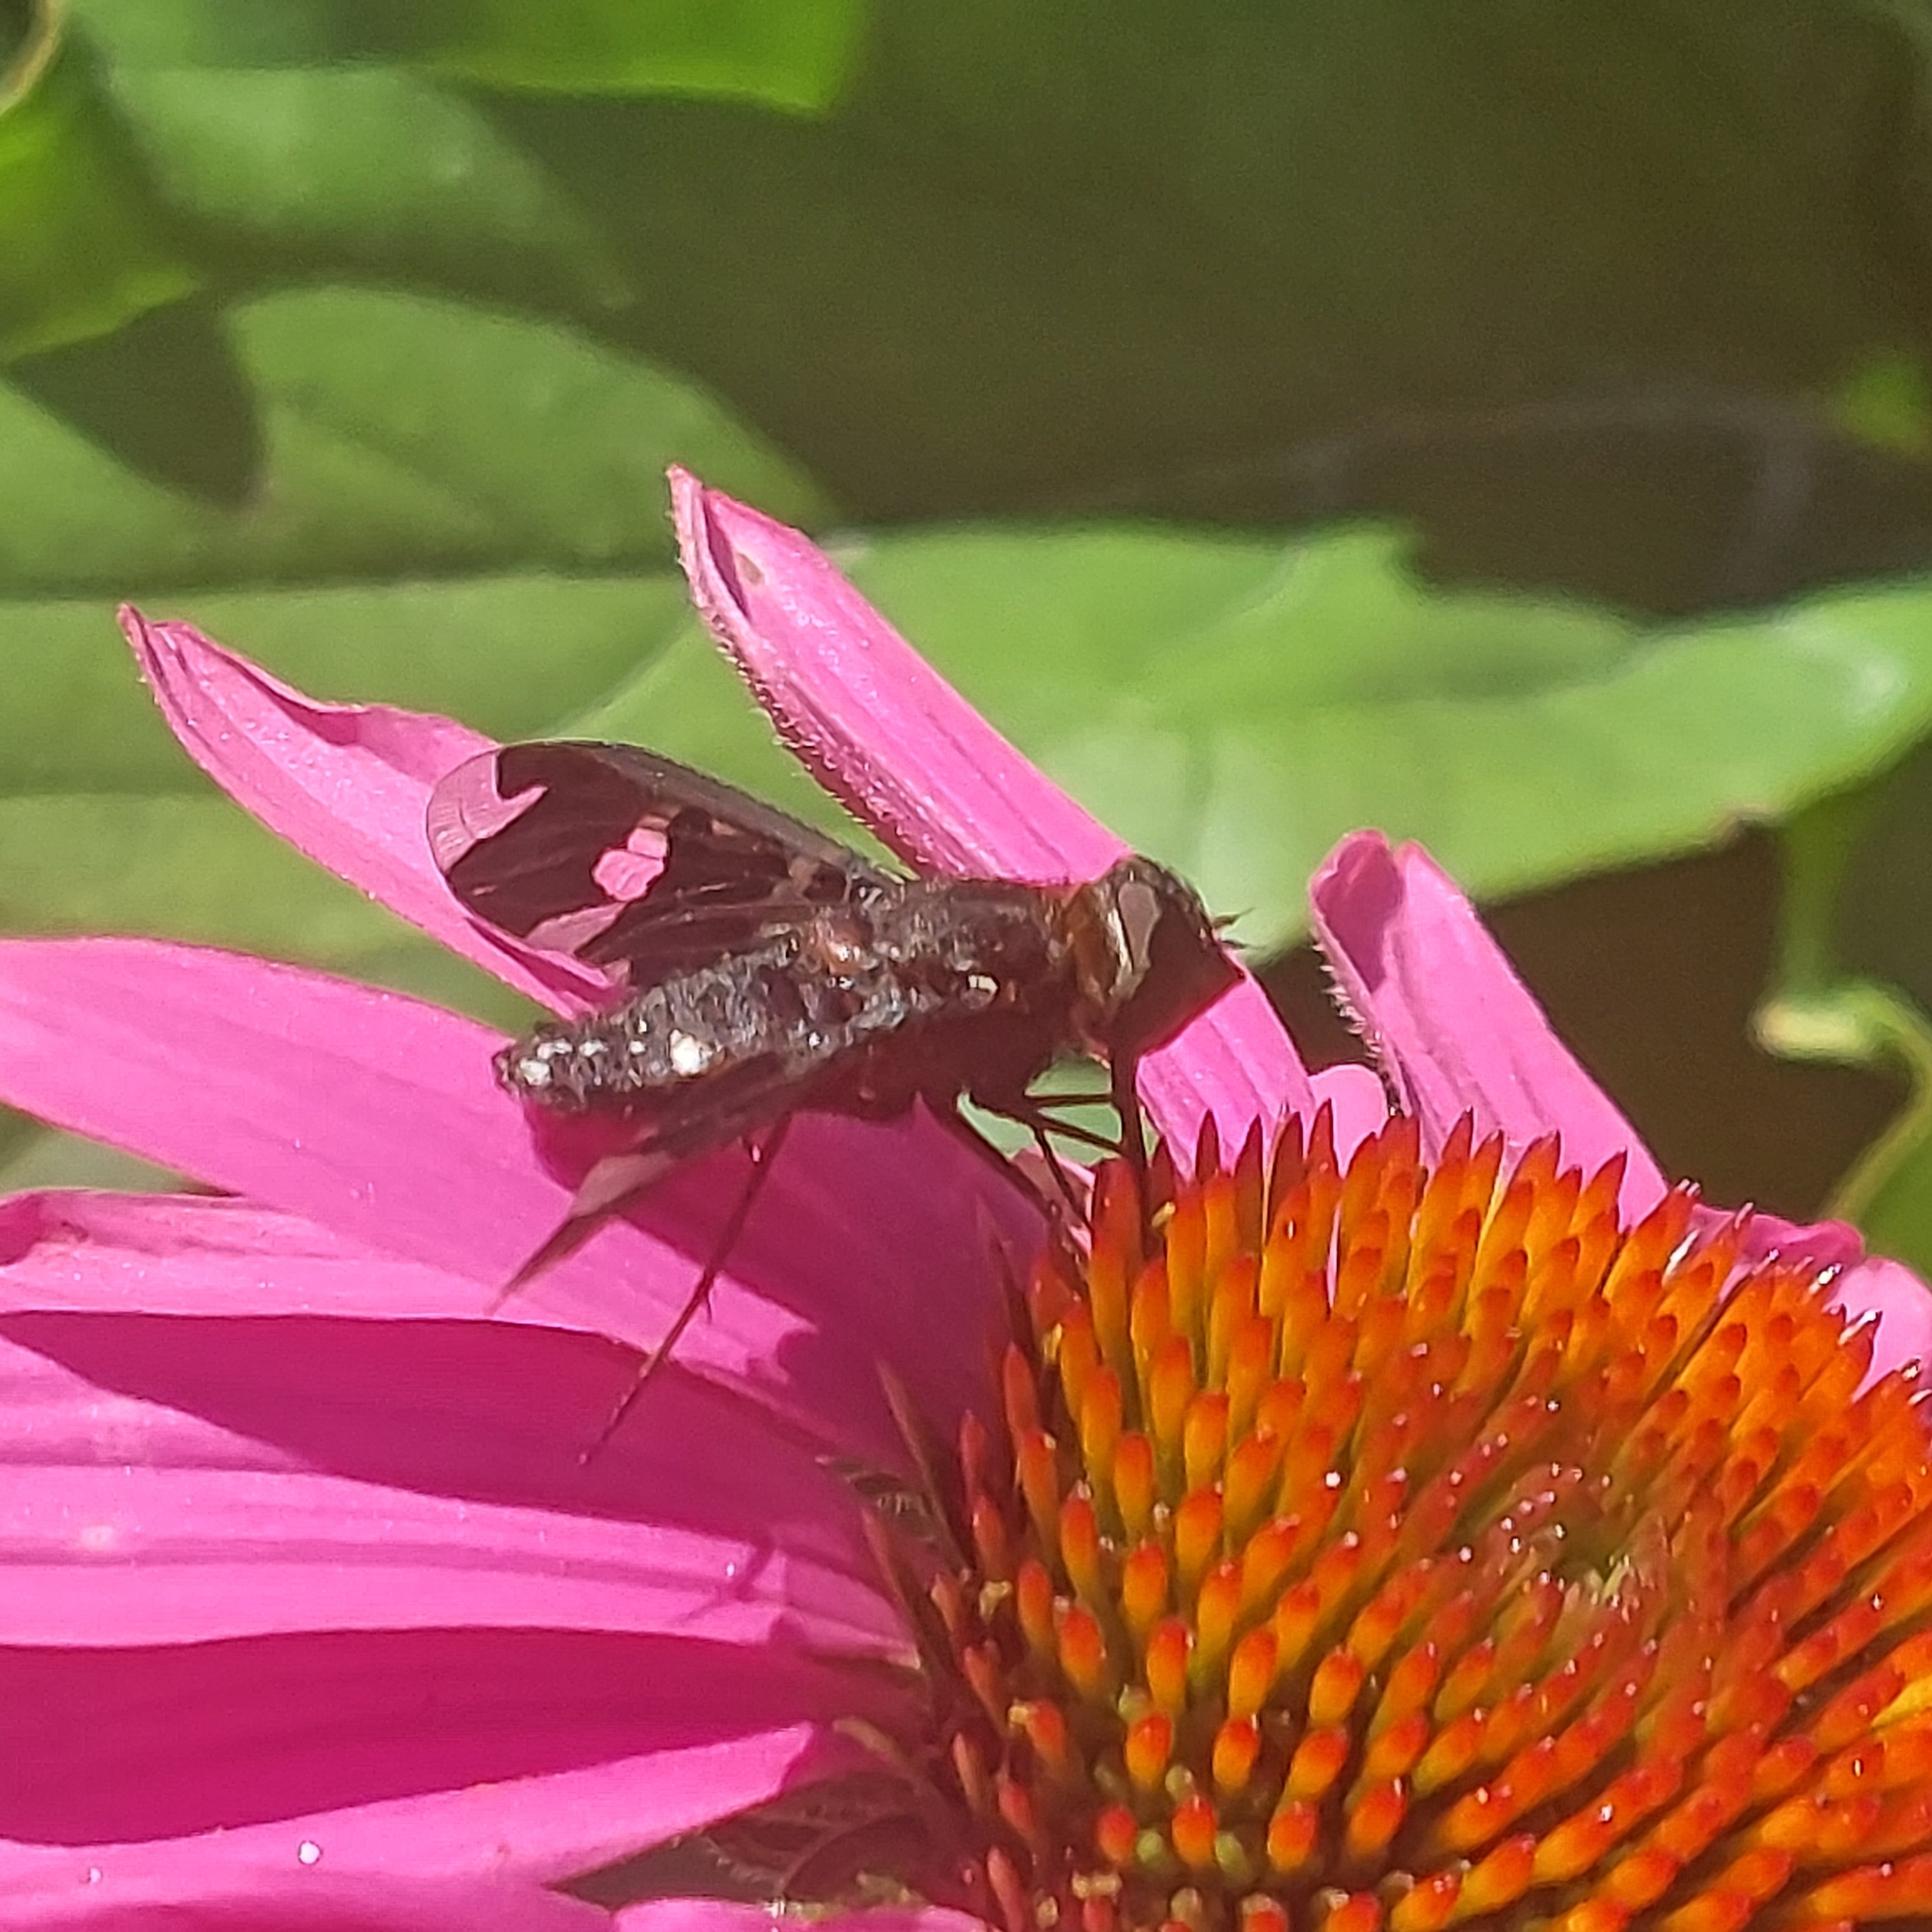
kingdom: Animalia
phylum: Arthropoda
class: Insecta
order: Diptera
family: Bombyliidae
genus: Exoprosopa
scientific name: Exoprosopa decora
